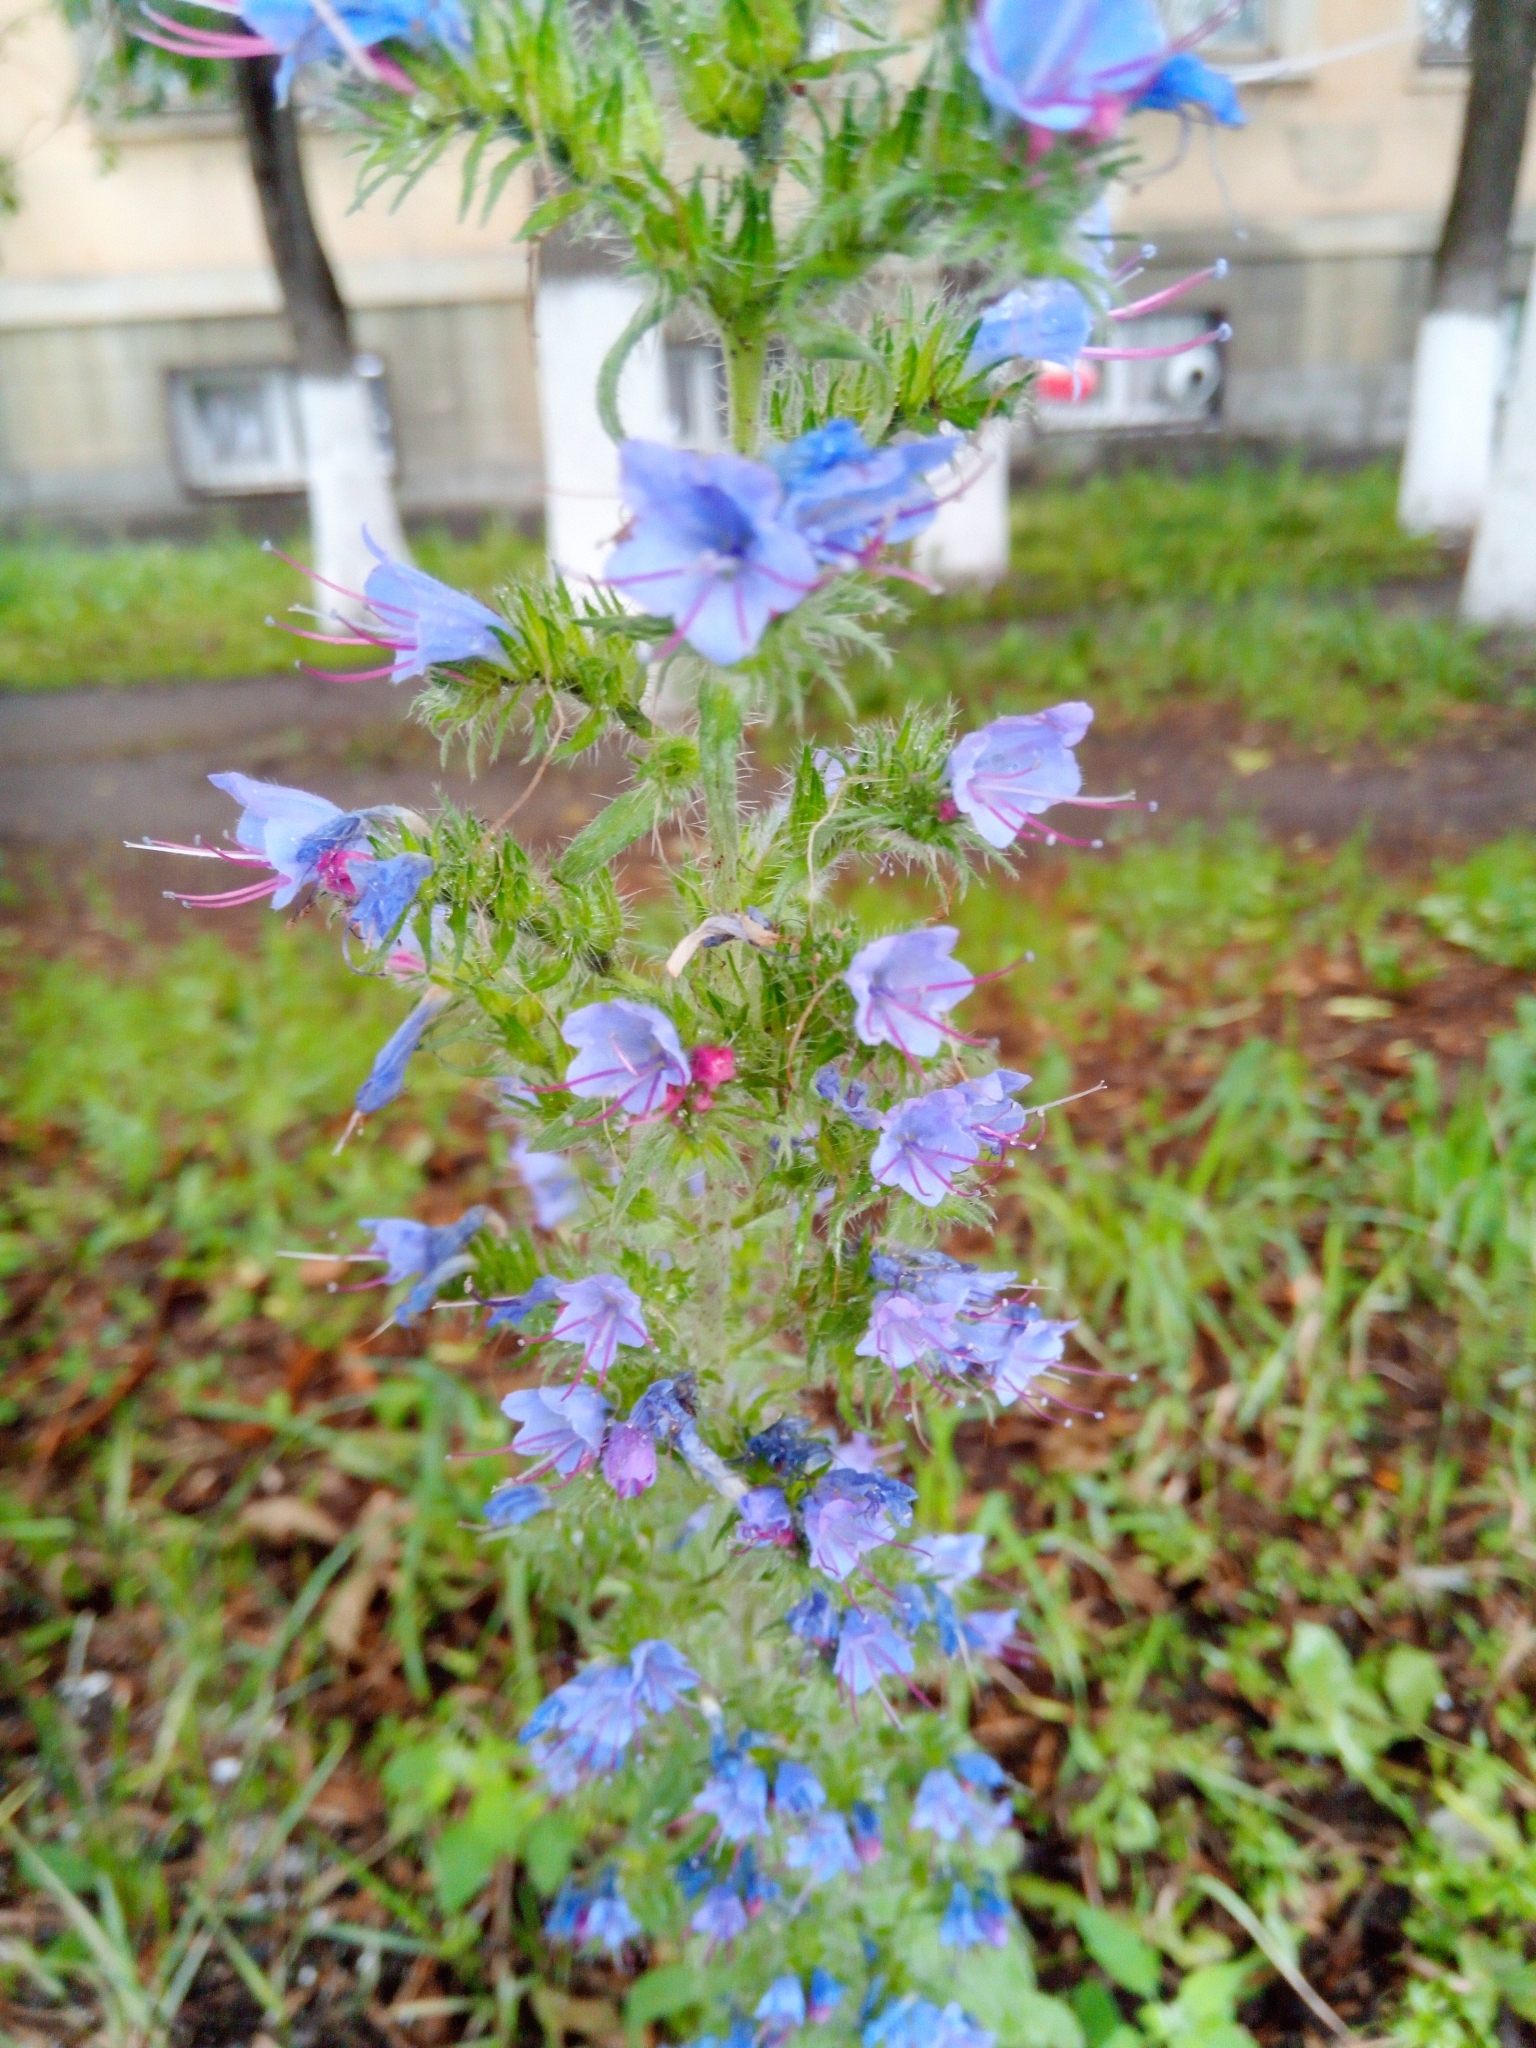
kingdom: Plantae
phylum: Tracheophyta
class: Magnoliopsida
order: Boraginales
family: Boraginaceae
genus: Echium
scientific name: Echium vulgare
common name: Common viper's bugloss
